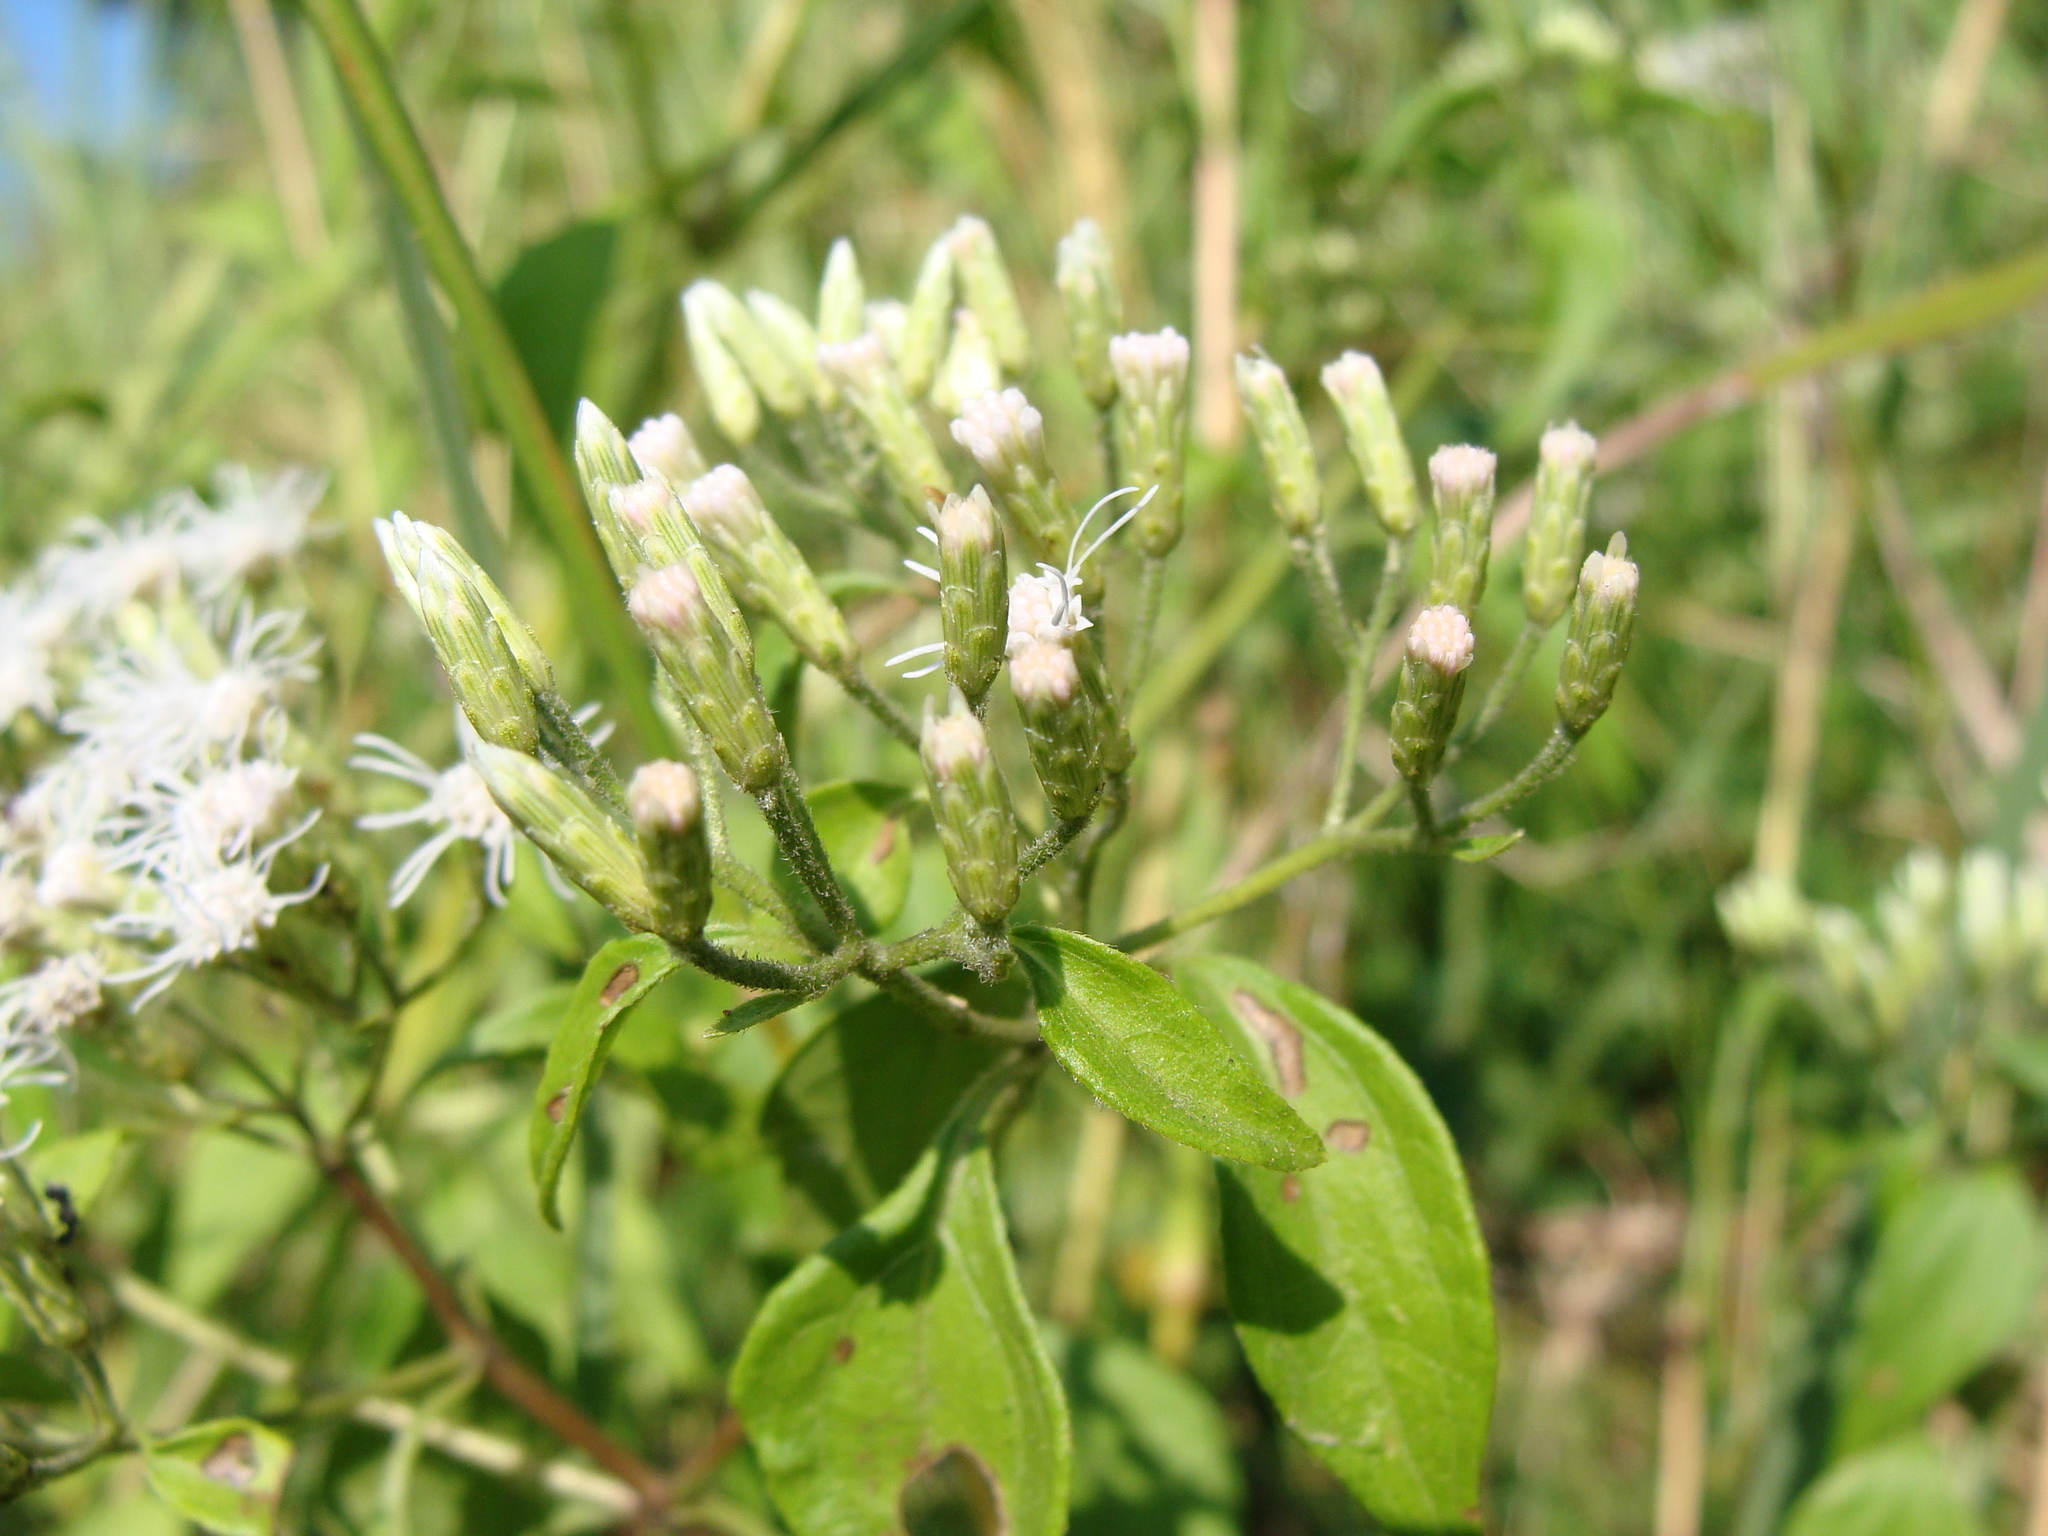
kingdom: Plantae
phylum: Tracheophyta
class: Magnoliopsida
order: Asterales
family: Asteraceae
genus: Chromolaena
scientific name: Chromolaena odorata
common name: Siamweed
